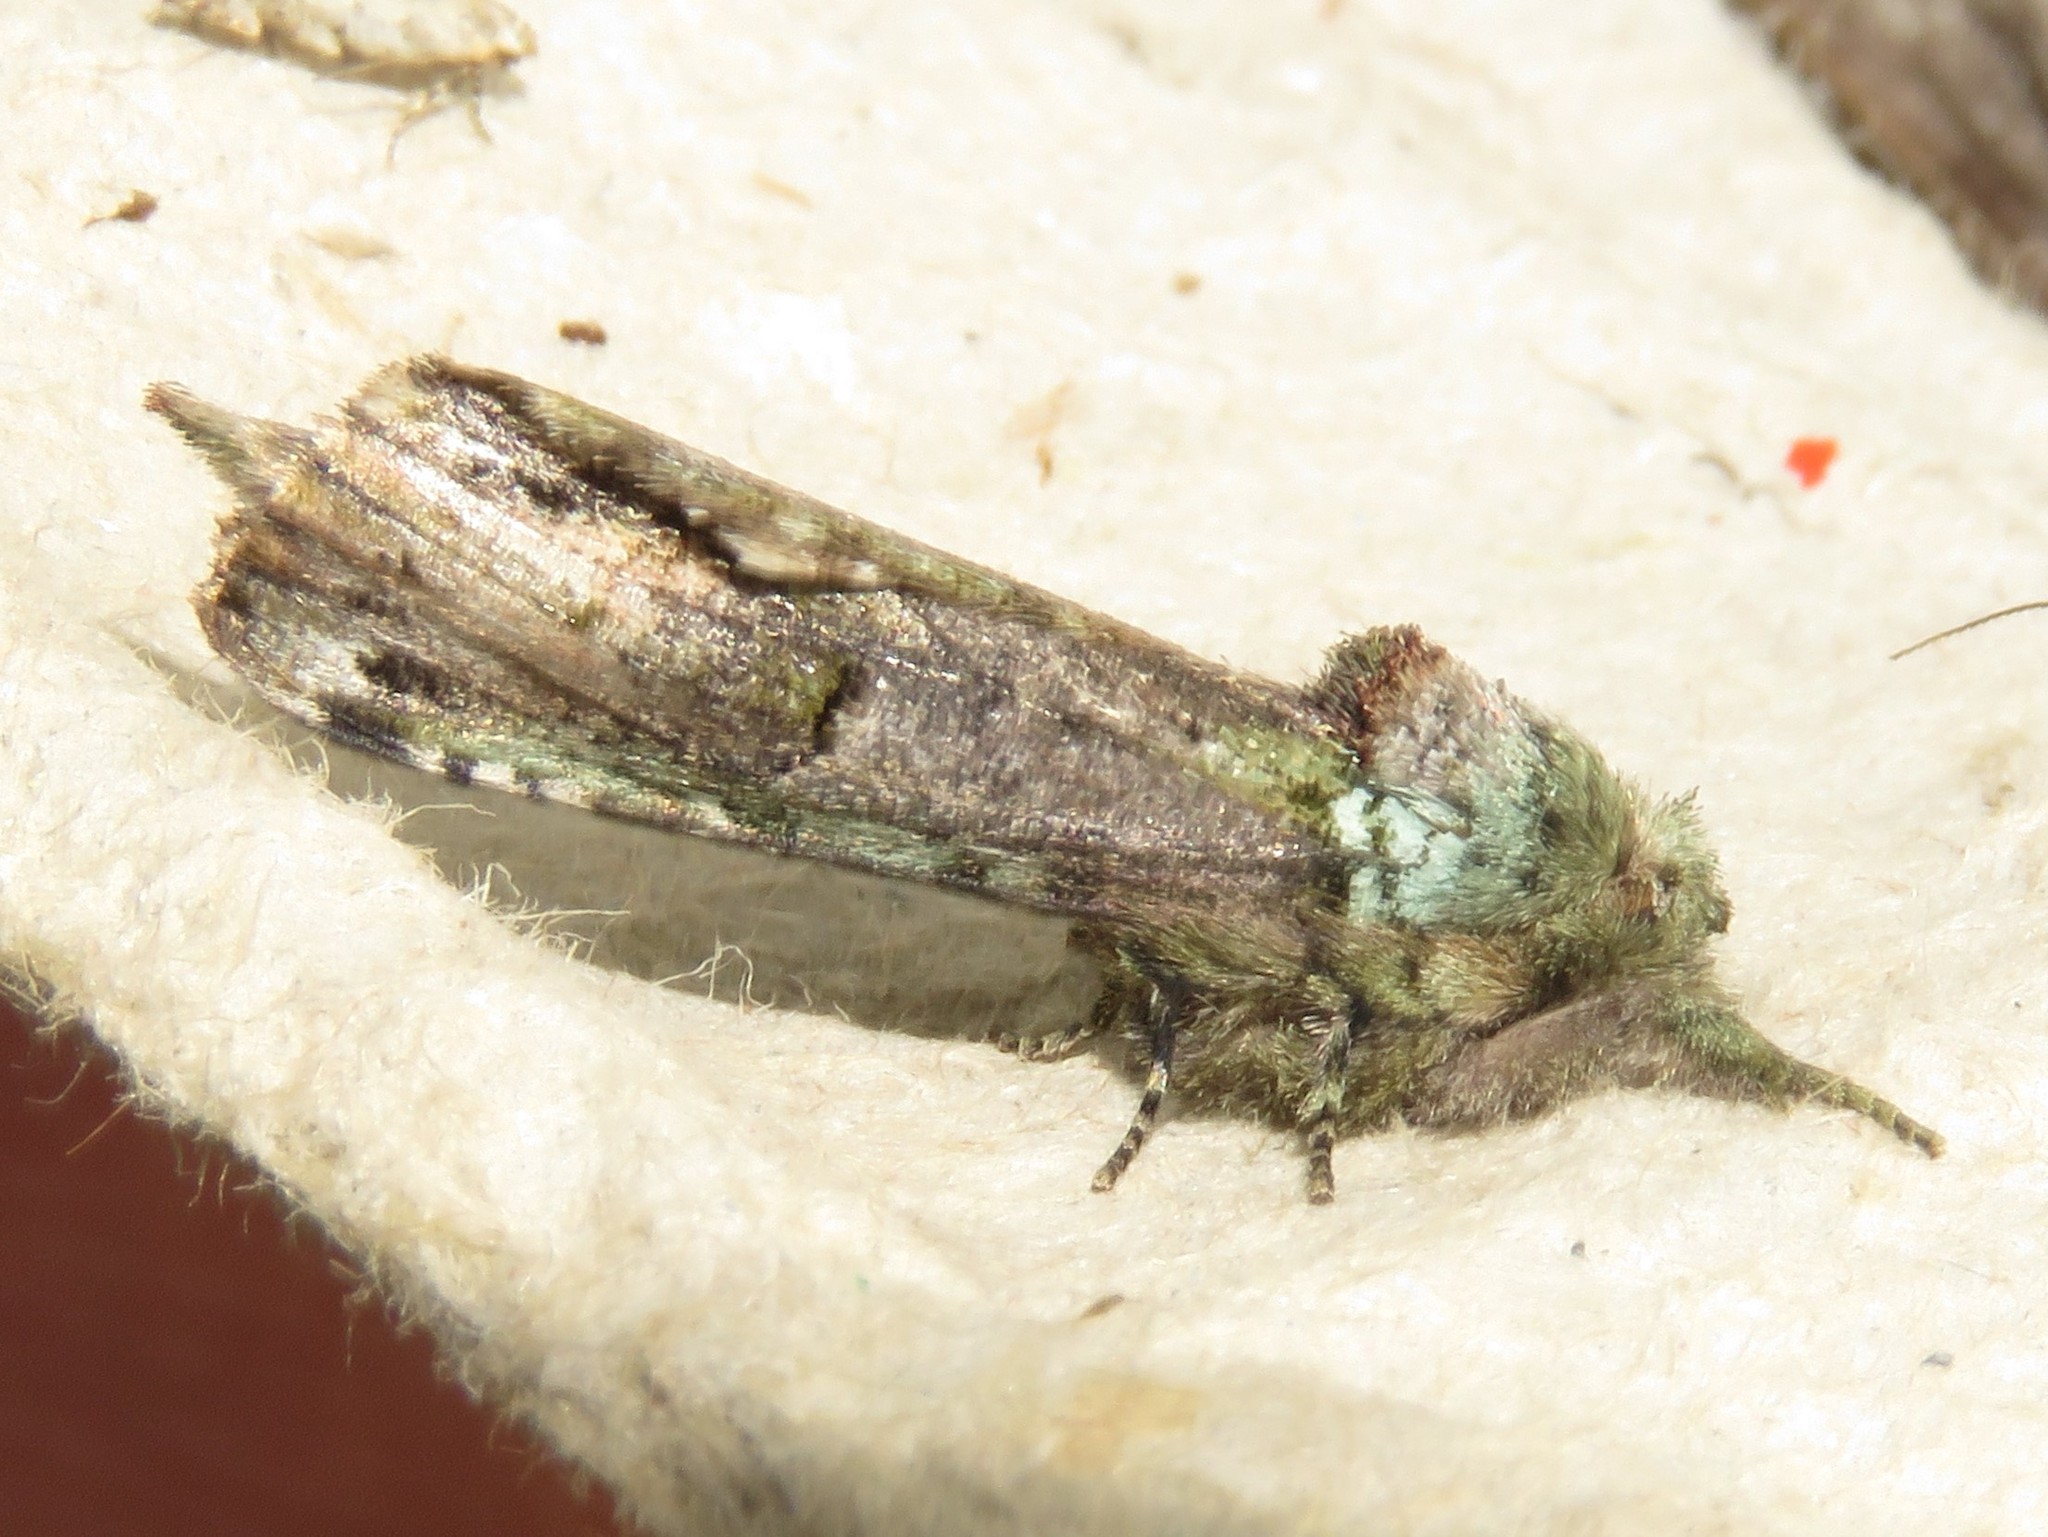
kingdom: Animalia
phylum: Arthropoda
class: Insecta
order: Lepidoptera
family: Notodontidae
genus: Schizura
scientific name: Schizura
